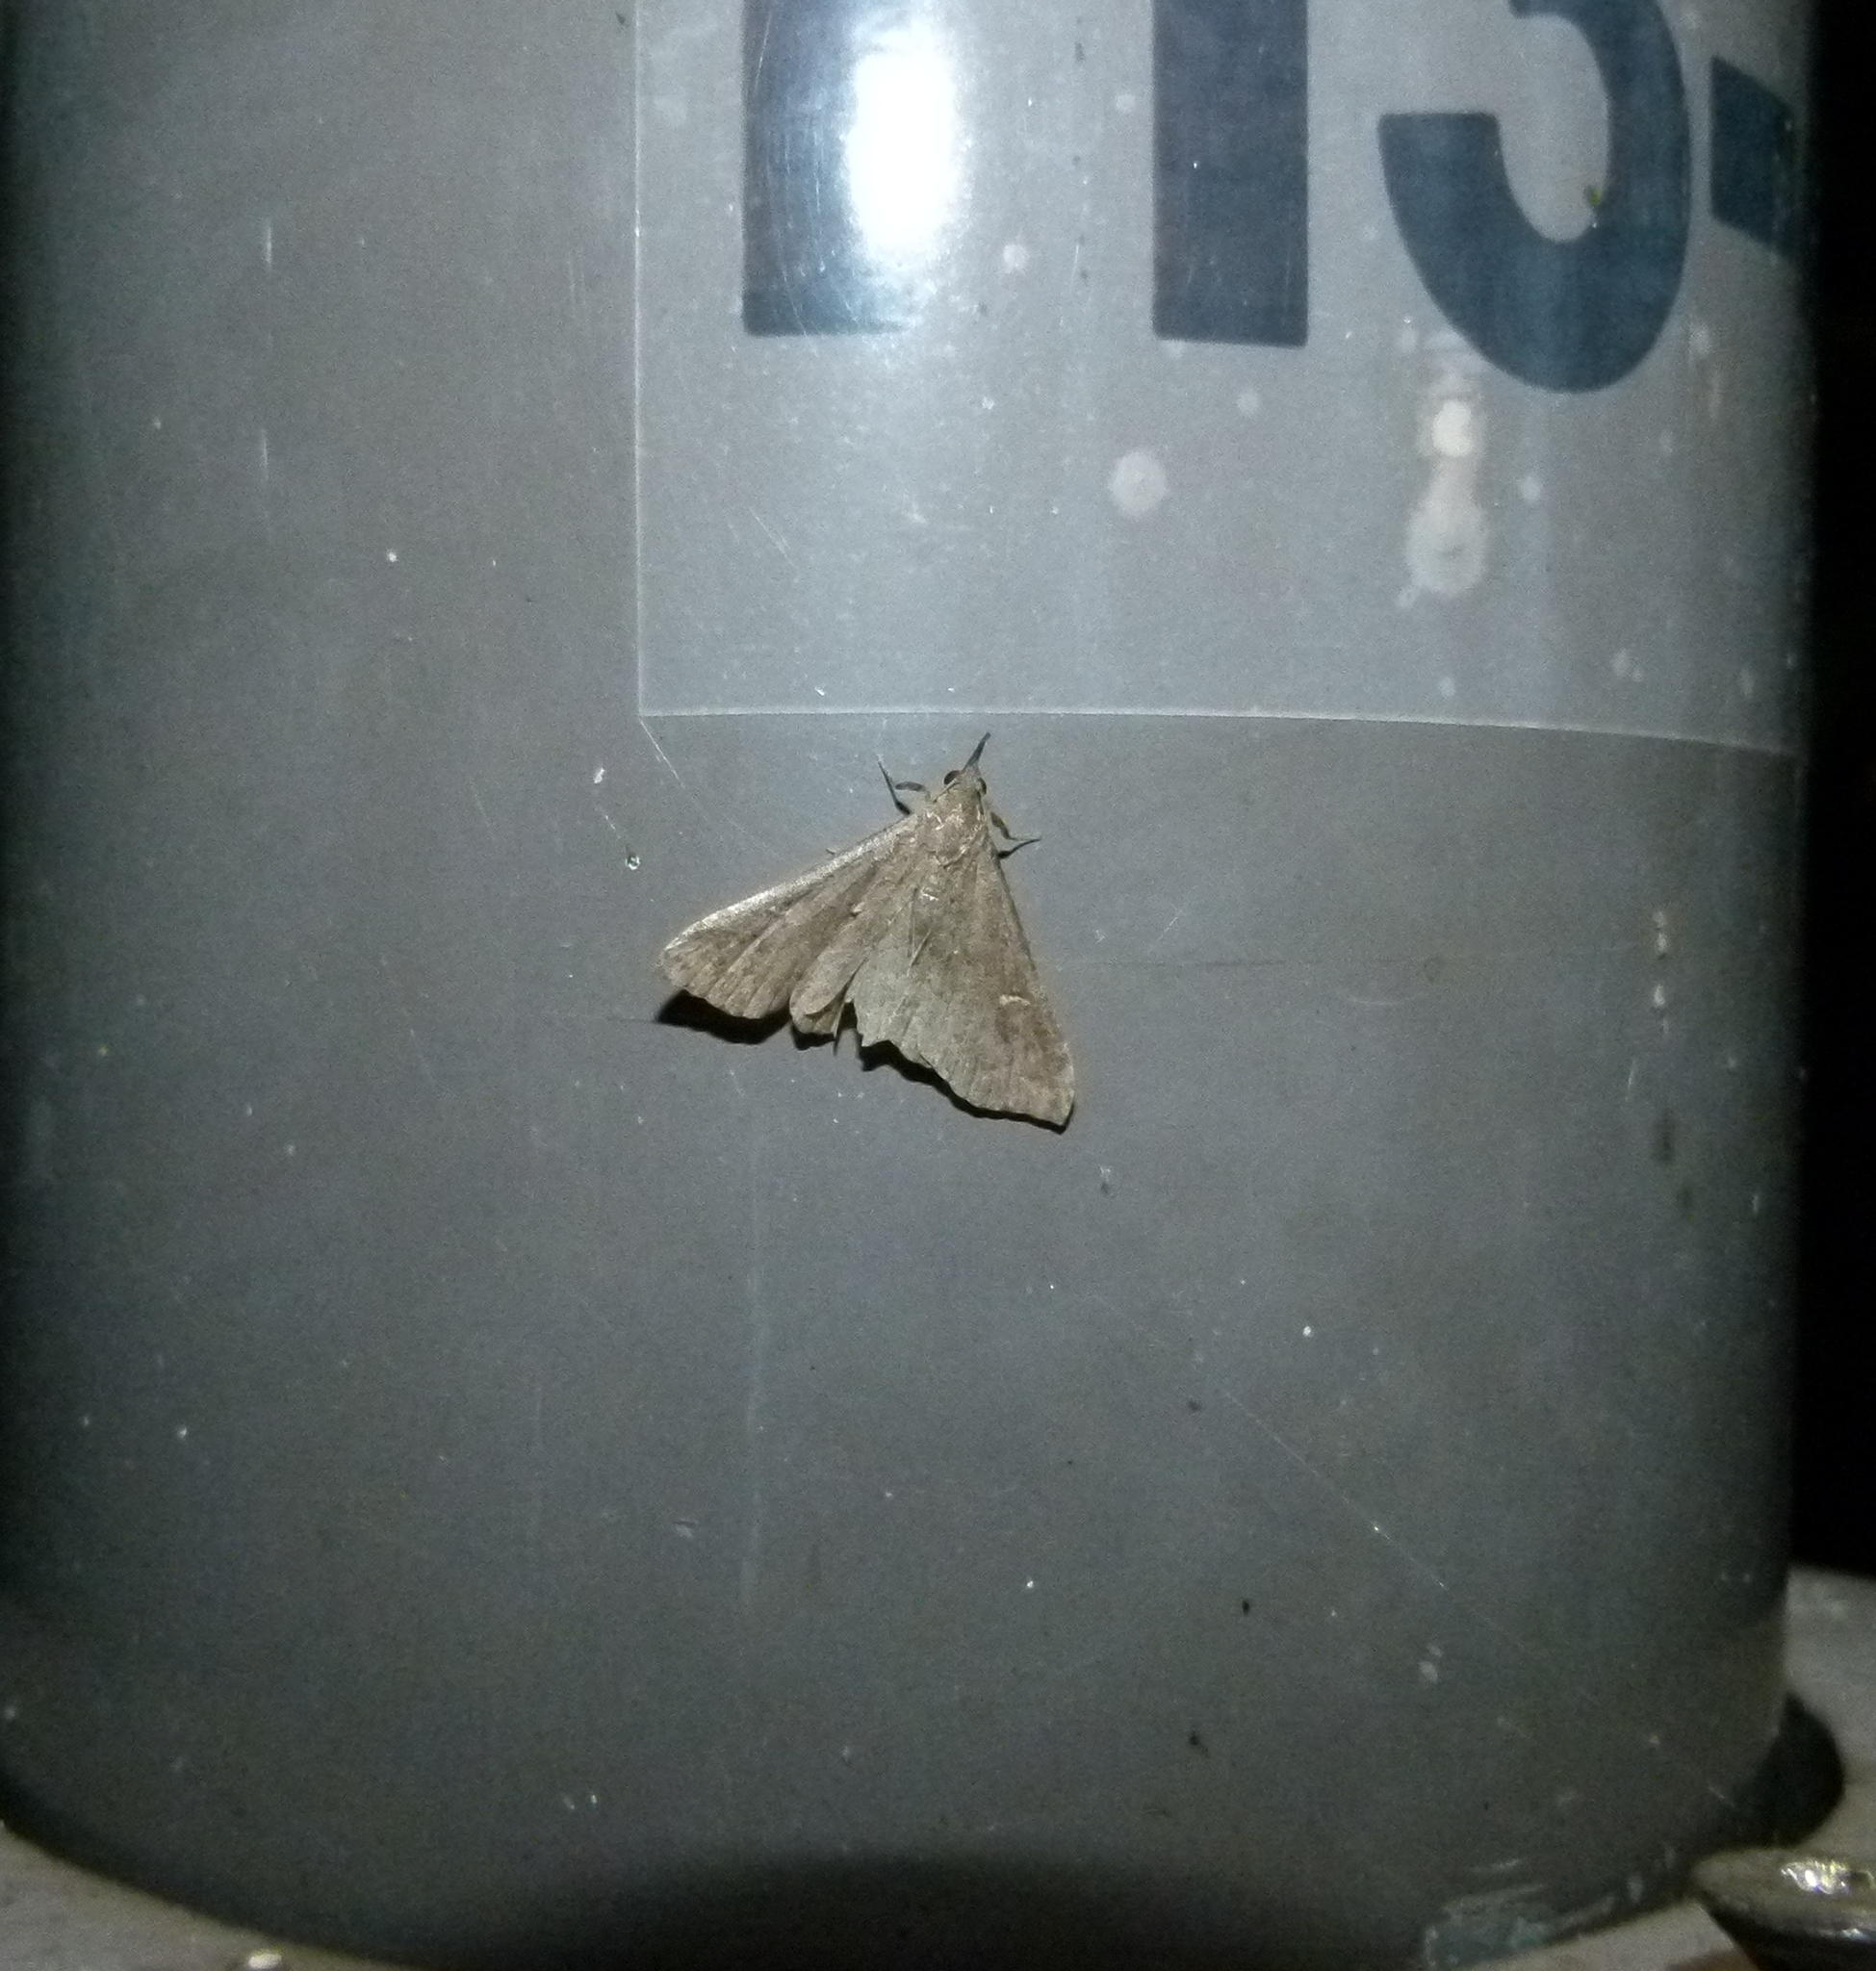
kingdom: Animalia
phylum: Arthropoda
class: Insecta
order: Lepidoptera
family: Erebidae
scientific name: Erebidae
